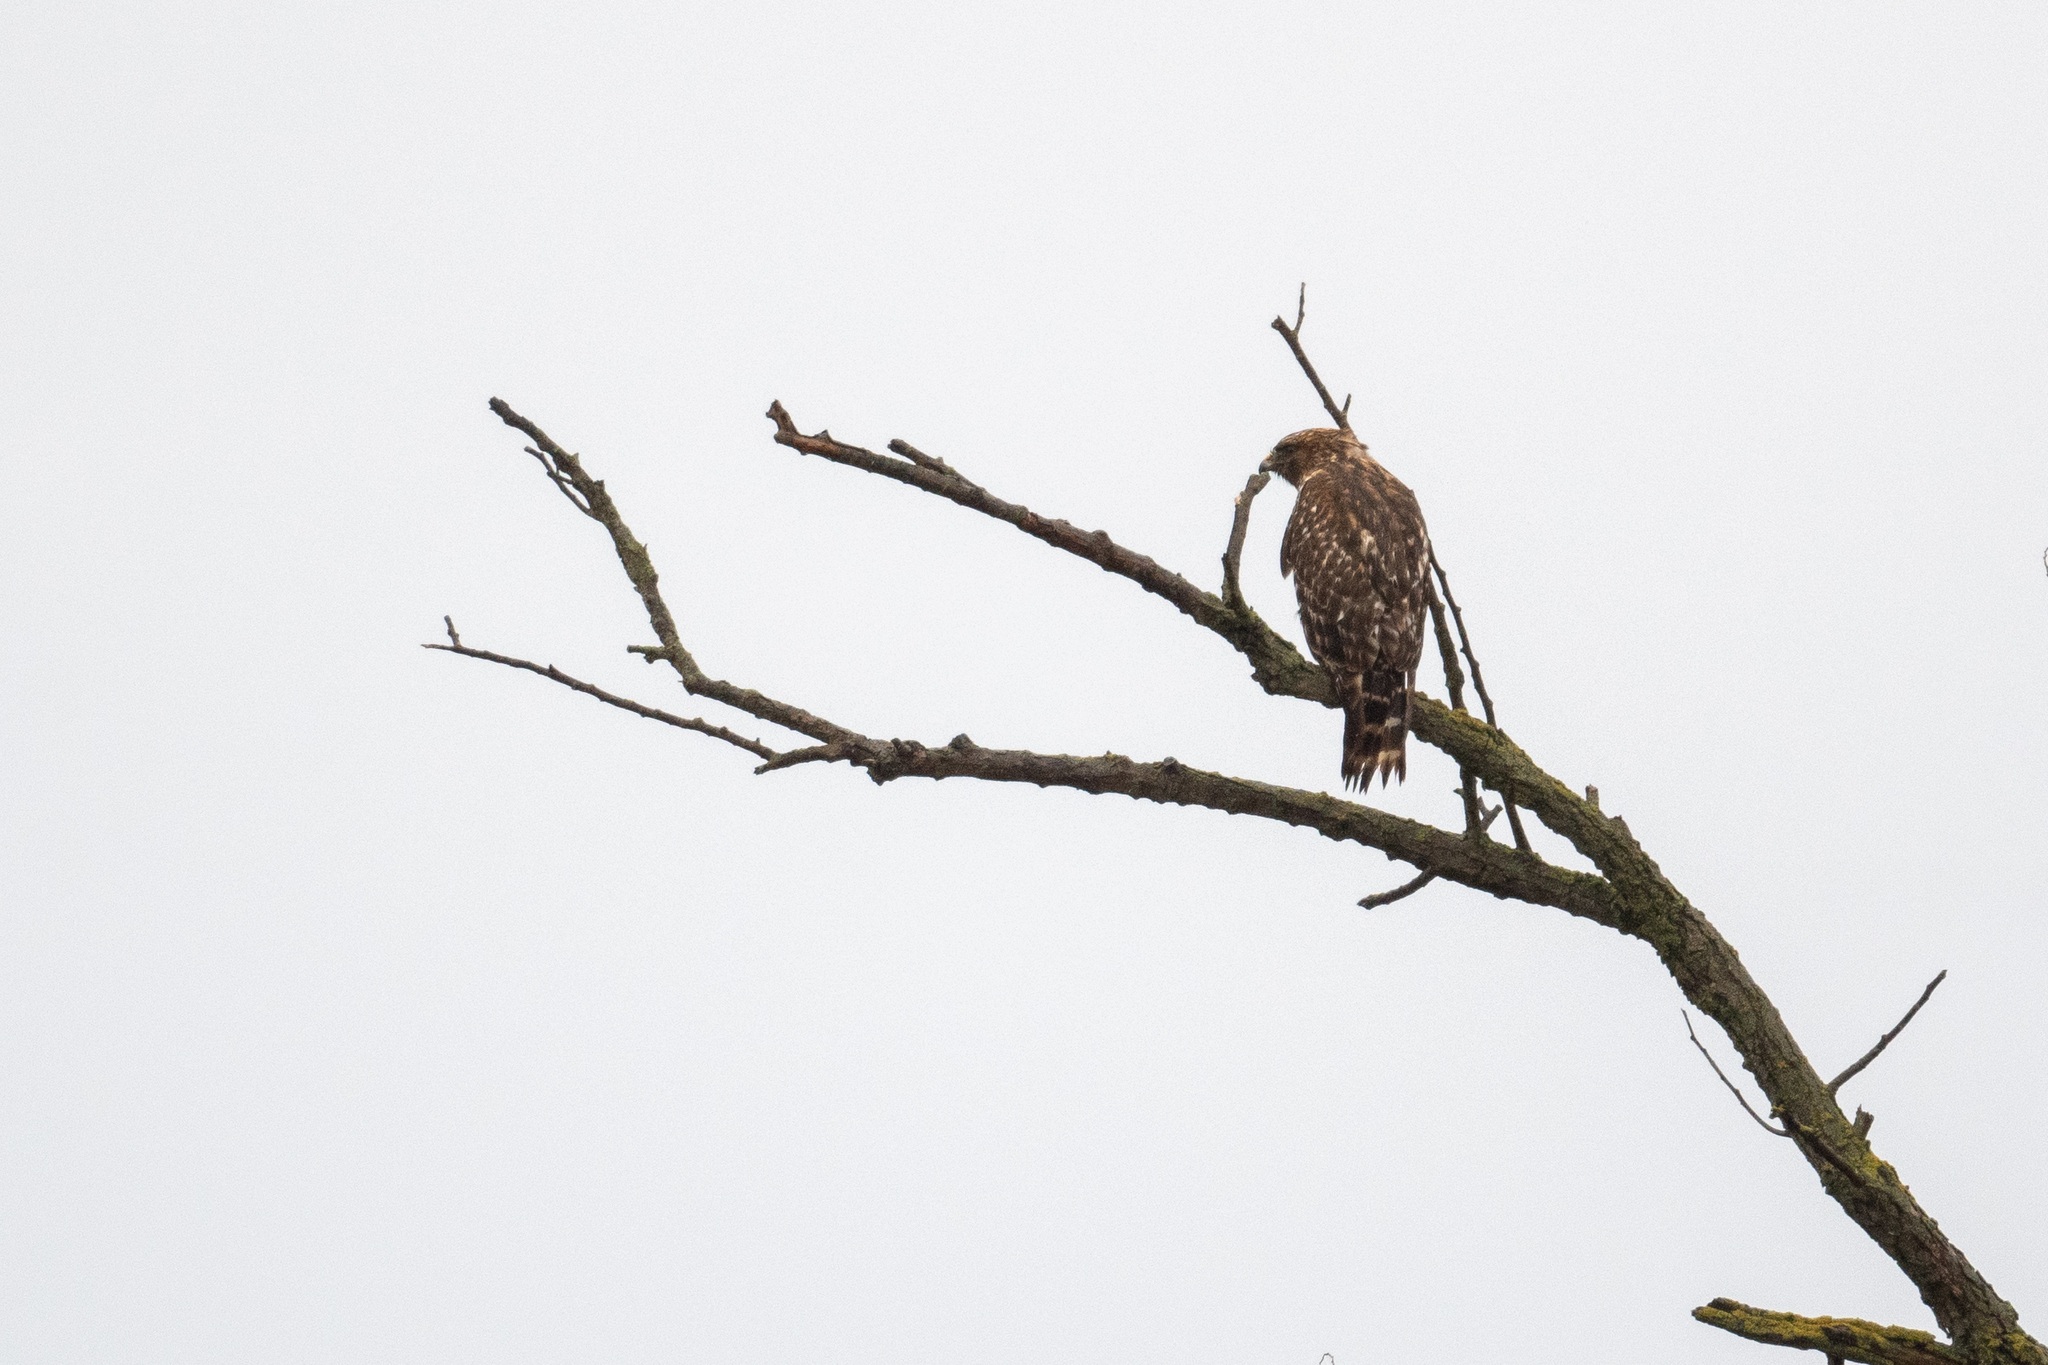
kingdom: Animalia
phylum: Chordata
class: Aves
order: Accipitriformes
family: Accipitridae
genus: Buteo
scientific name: Buteo lineatus
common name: Red-shouldered hawk
